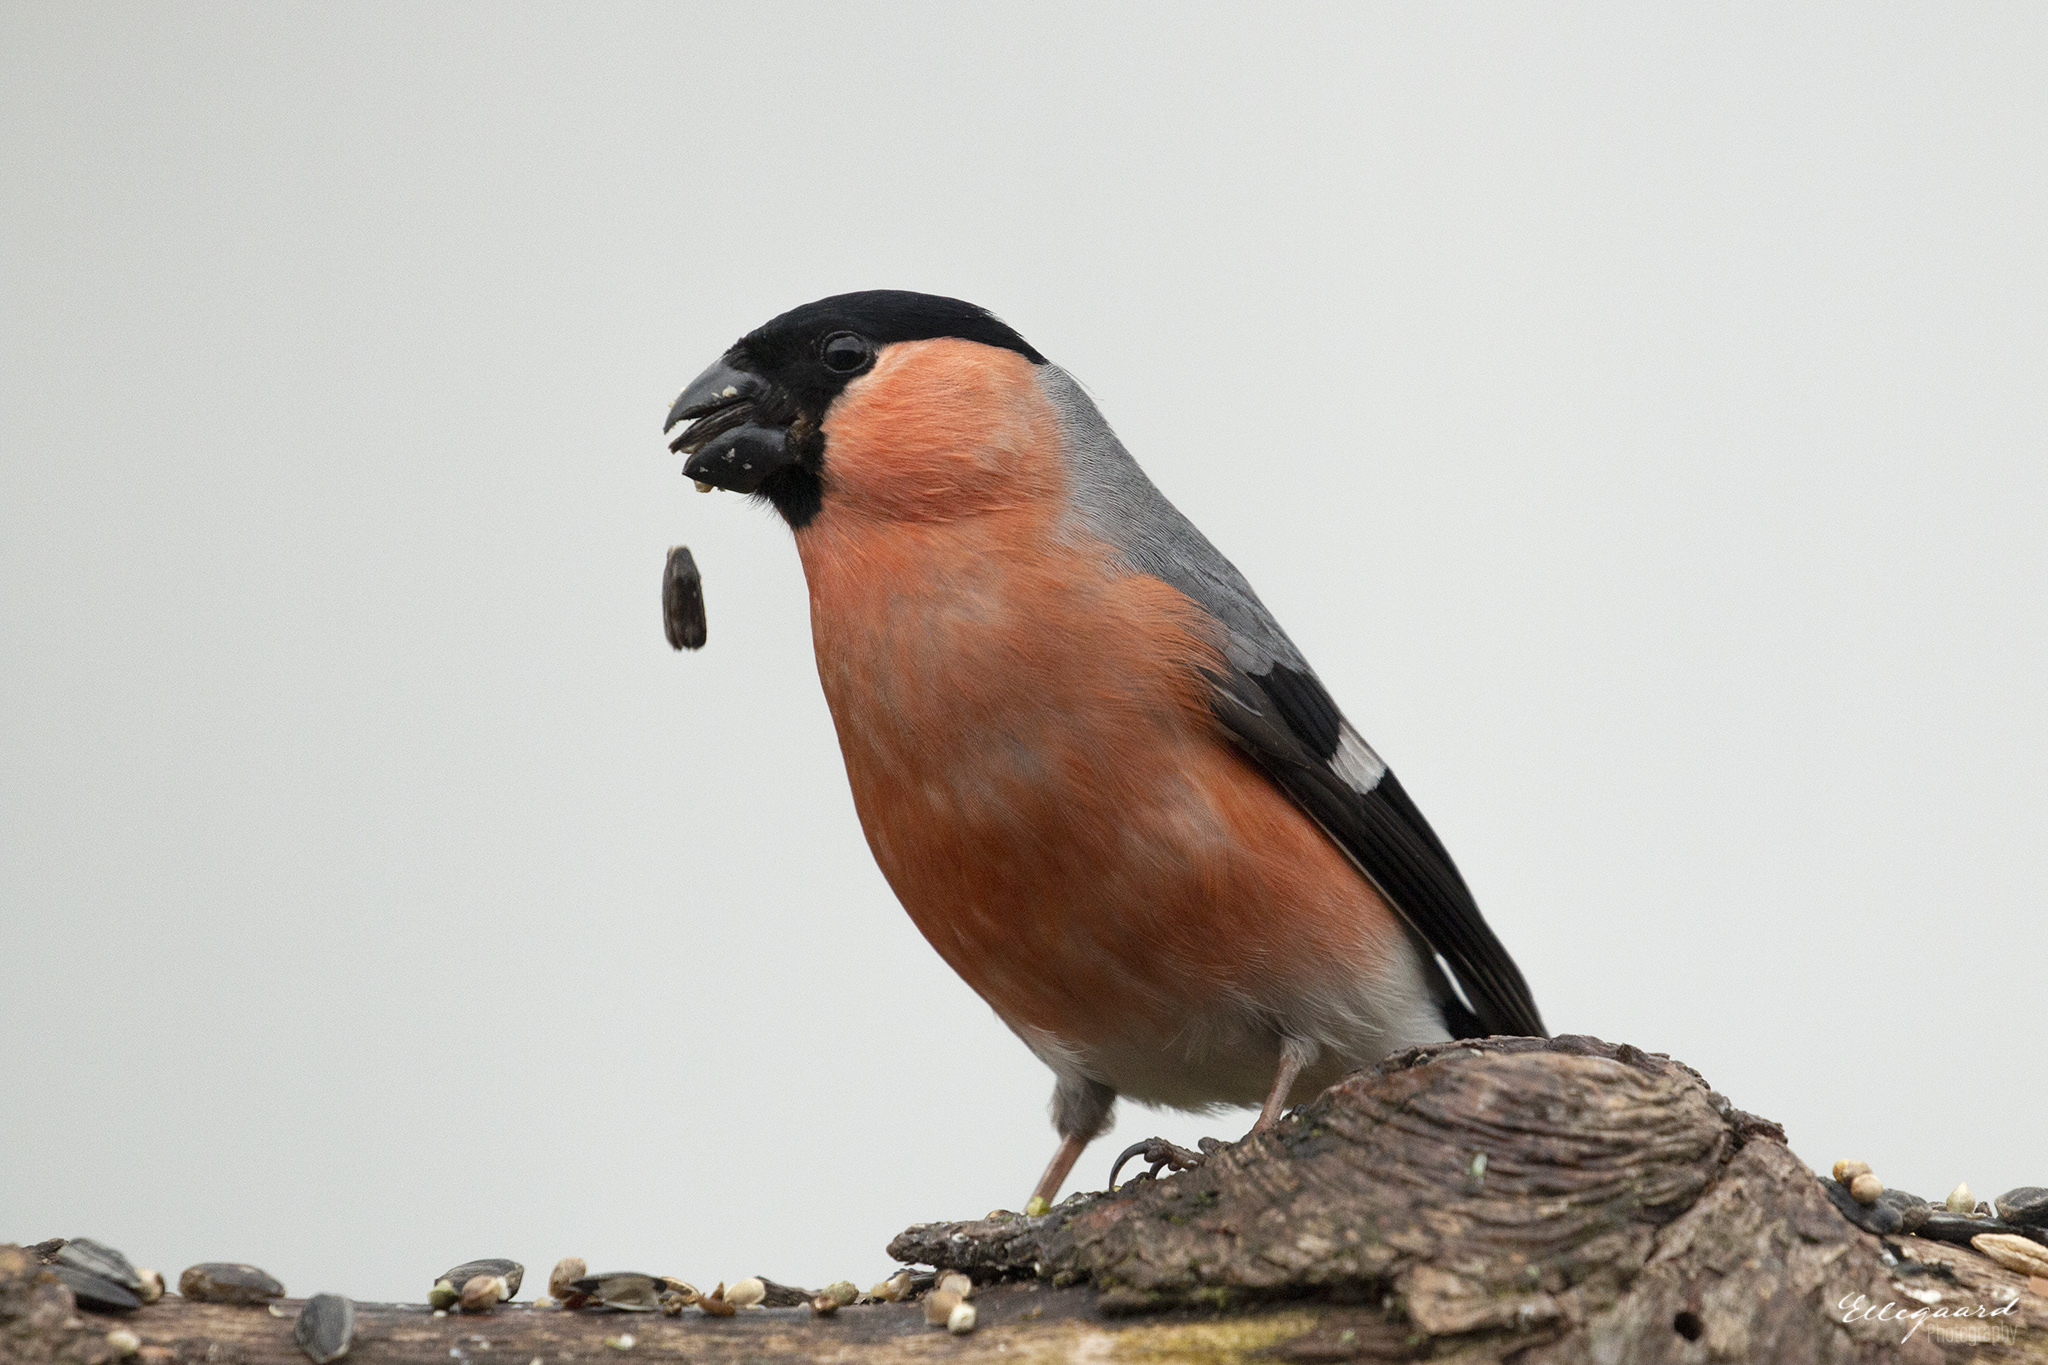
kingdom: Animalia
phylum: Chordata
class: Aves
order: Passeriformes
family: Fringillidae
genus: Pyrrhula
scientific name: Pyrrhula pyrrhula
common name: Eurasian bullfinch
